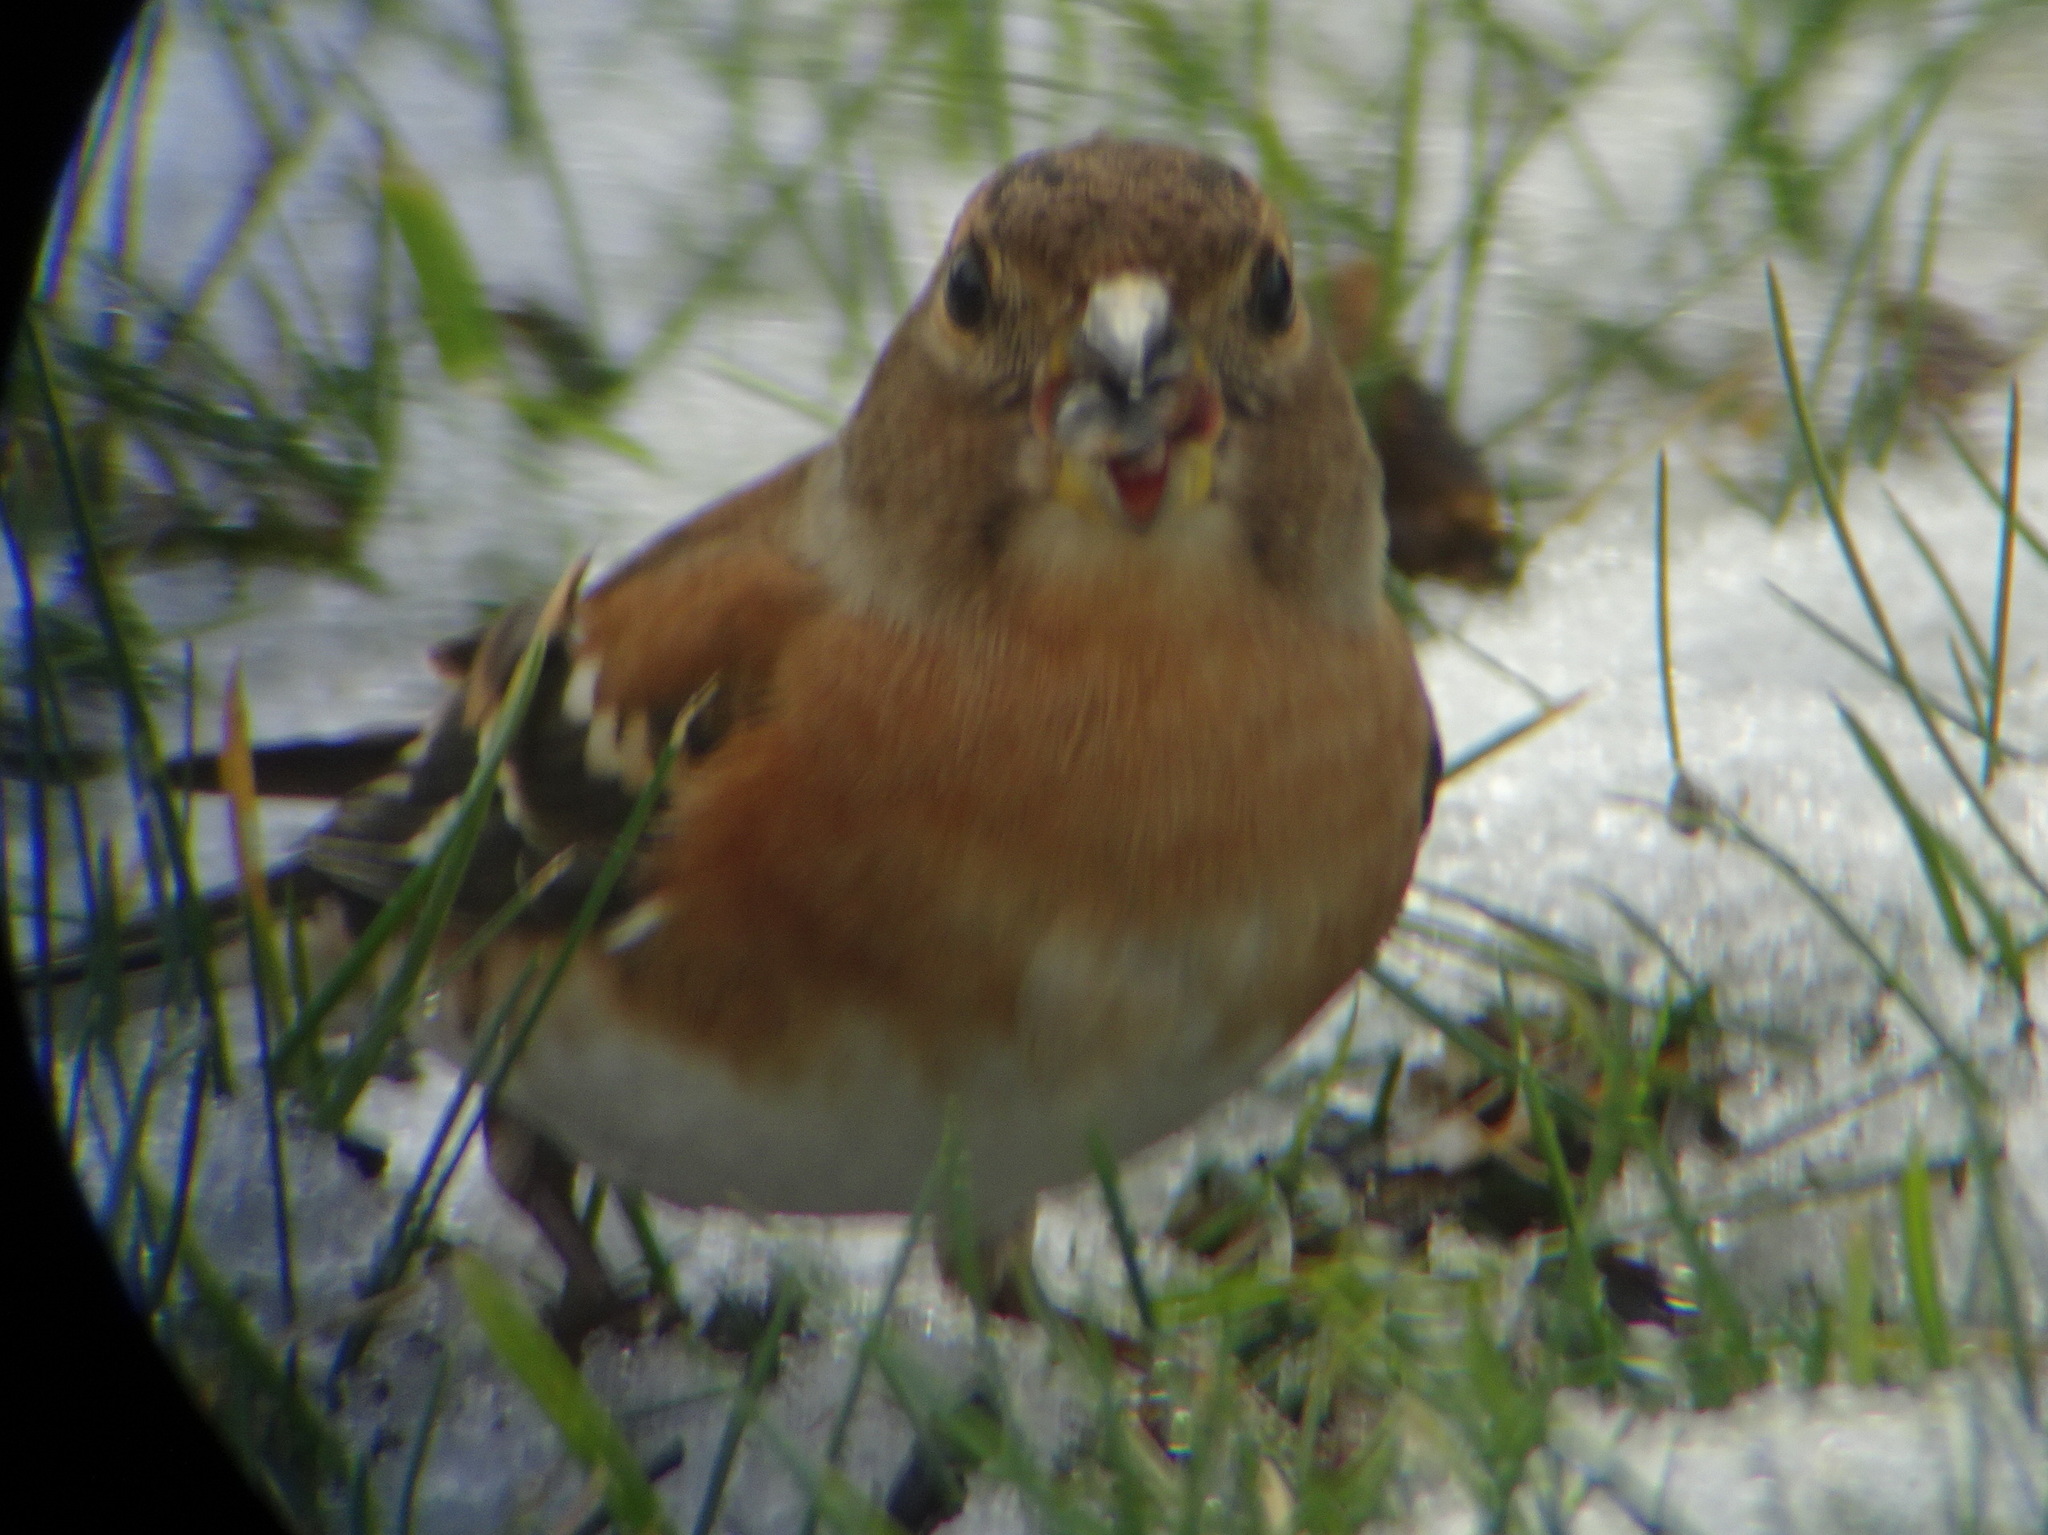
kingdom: Animalia
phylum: Chordata
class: Aves
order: Passeriformes
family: Fringillidae
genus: Fringilla
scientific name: Fringilla montifringilla
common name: Brambling
